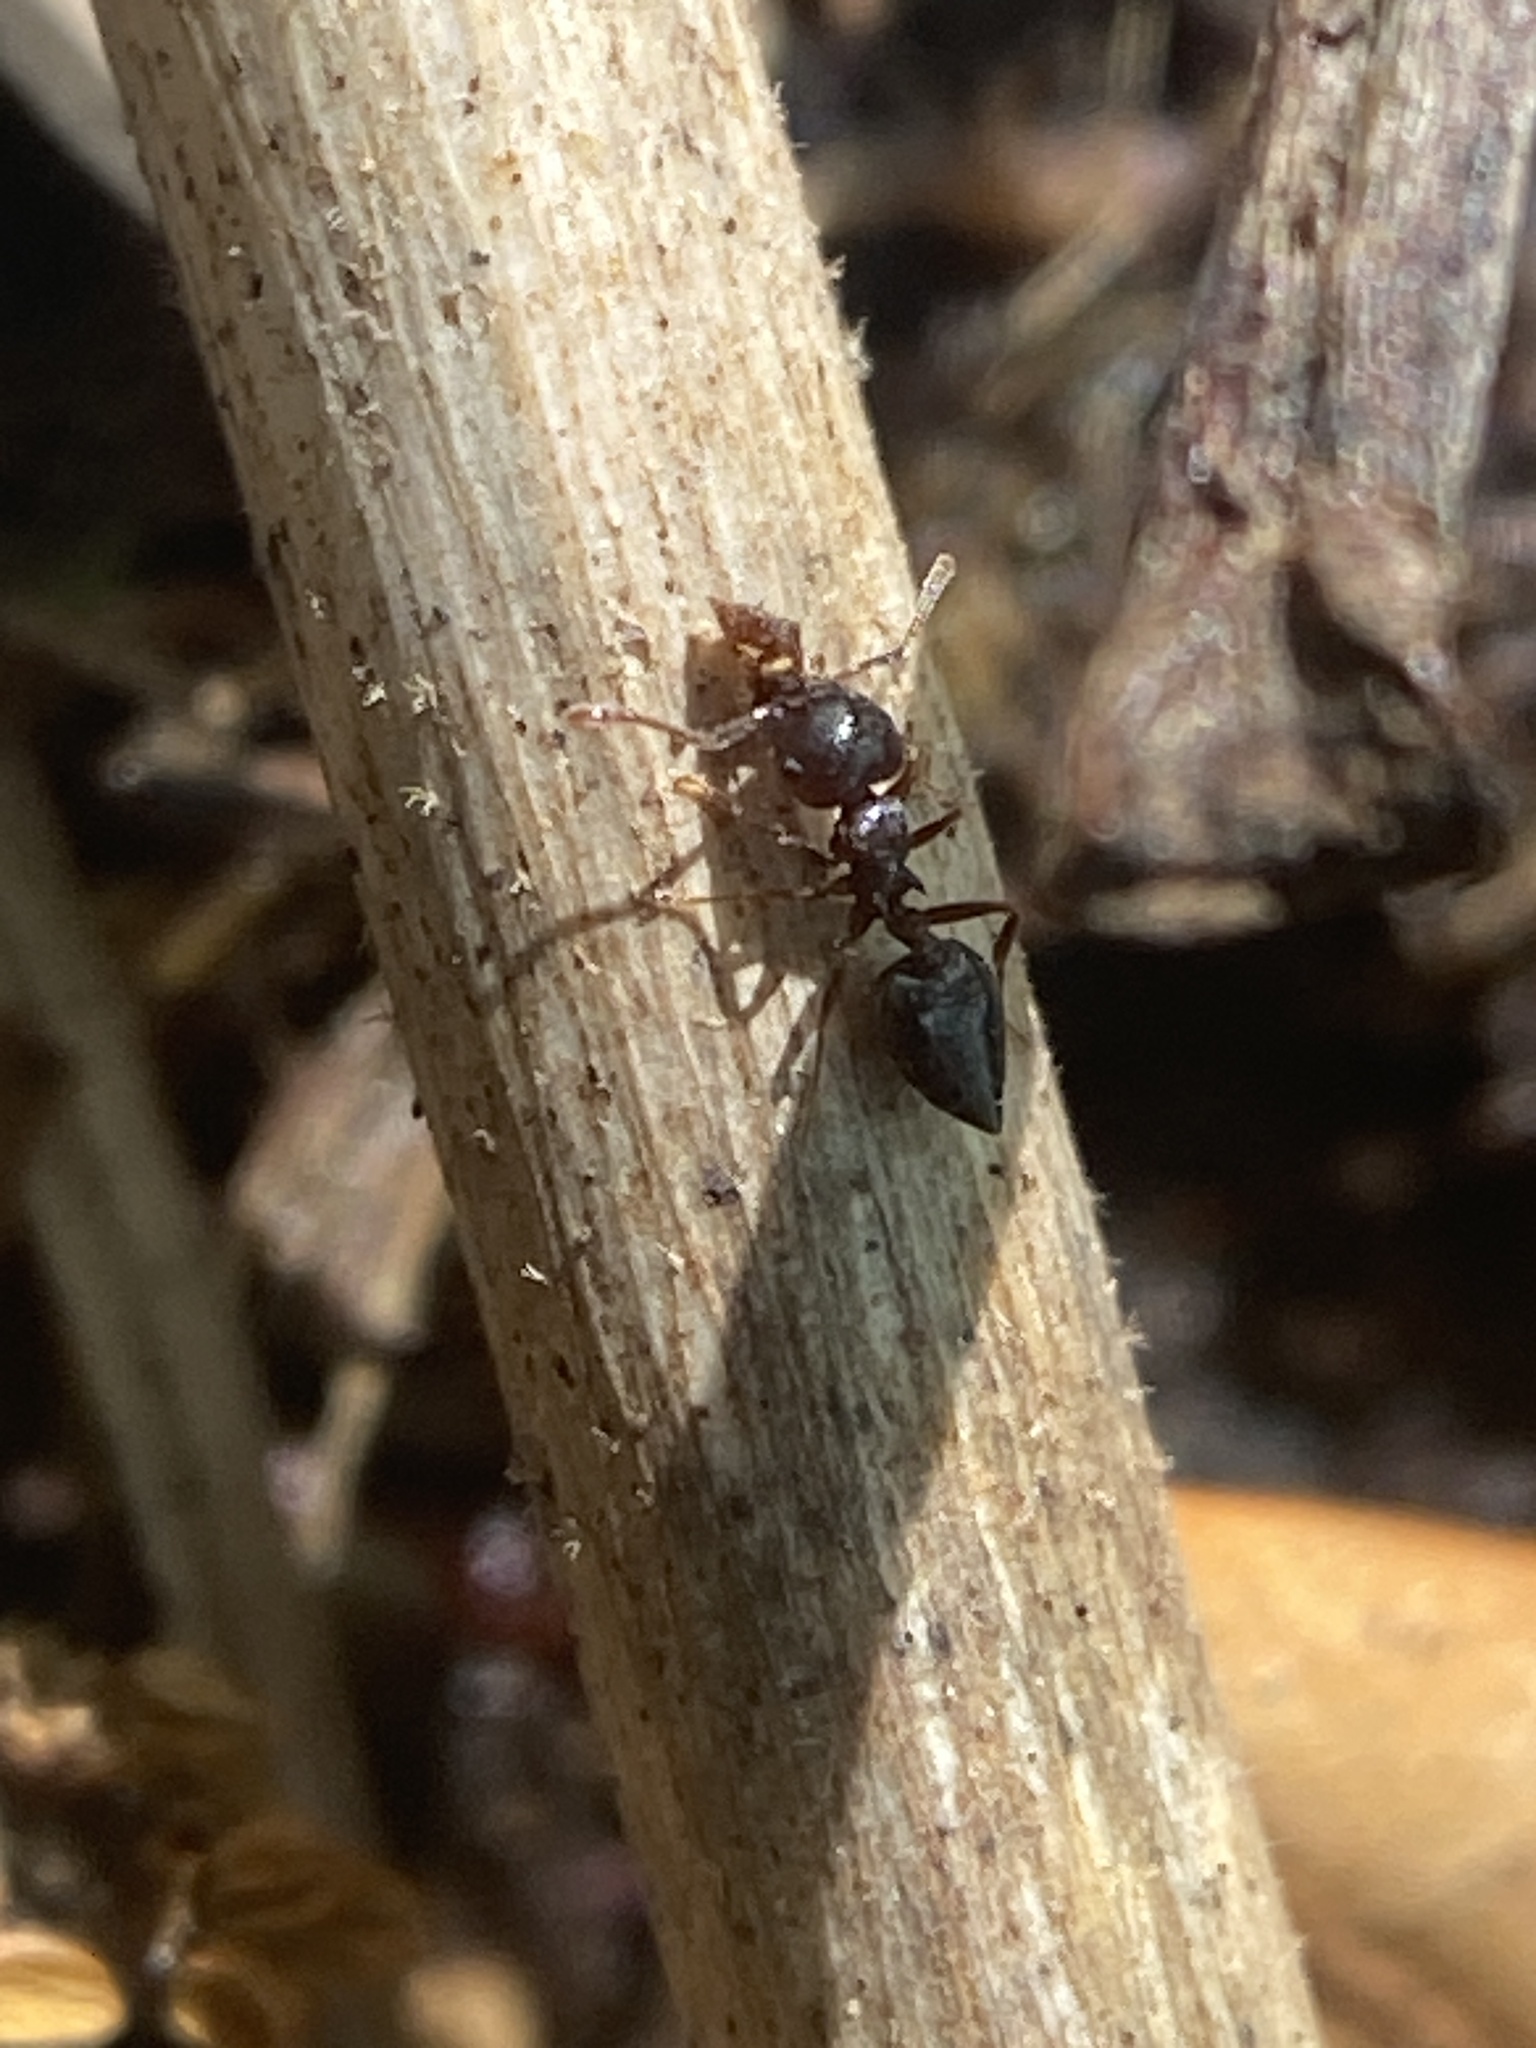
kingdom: Animalia
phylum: Arthropoda
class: Insecta
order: Hymenoptera
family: Formicidae
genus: Crematogaster
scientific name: Crematogaster ashmeadi
